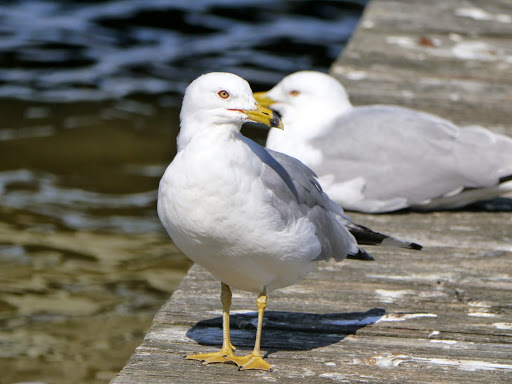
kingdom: Animalia
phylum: Chordata
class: Aves
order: Charadriiformes
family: Laridae
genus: Larus
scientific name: Larus delawarensis
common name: Ring-billed gull
